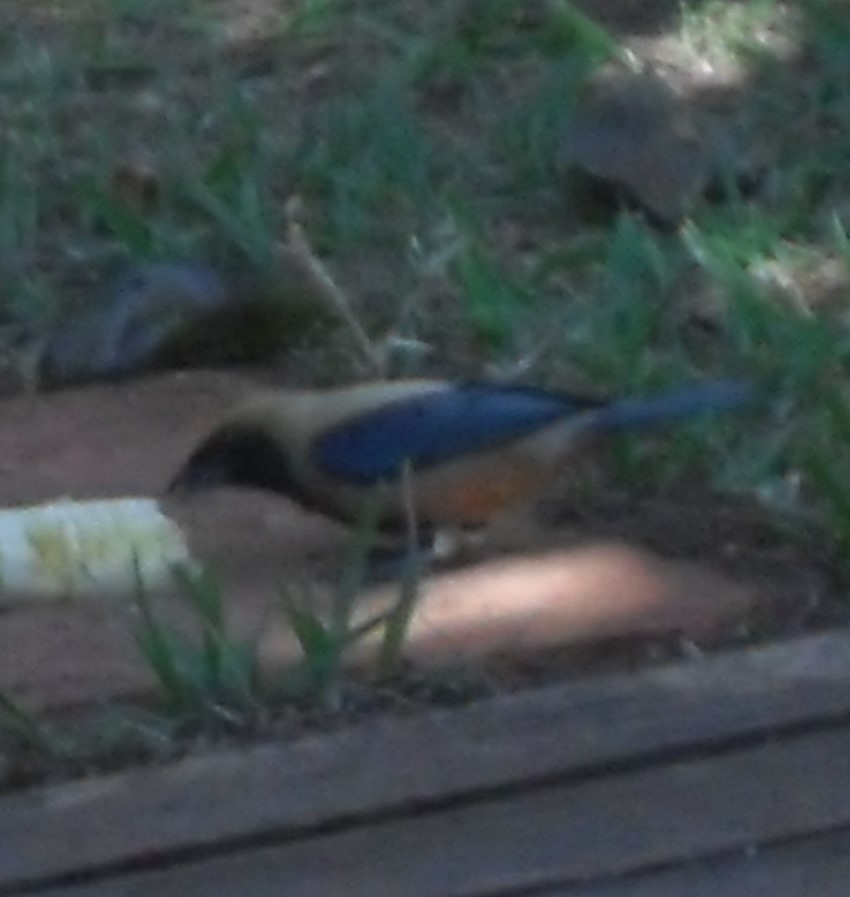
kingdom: Animalia
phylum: Chordata
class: Aves
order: Passeriformes
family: Thraupidae
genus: Stilpnia
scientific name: Stilpnia cayana
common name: Burnished-buff tanager
